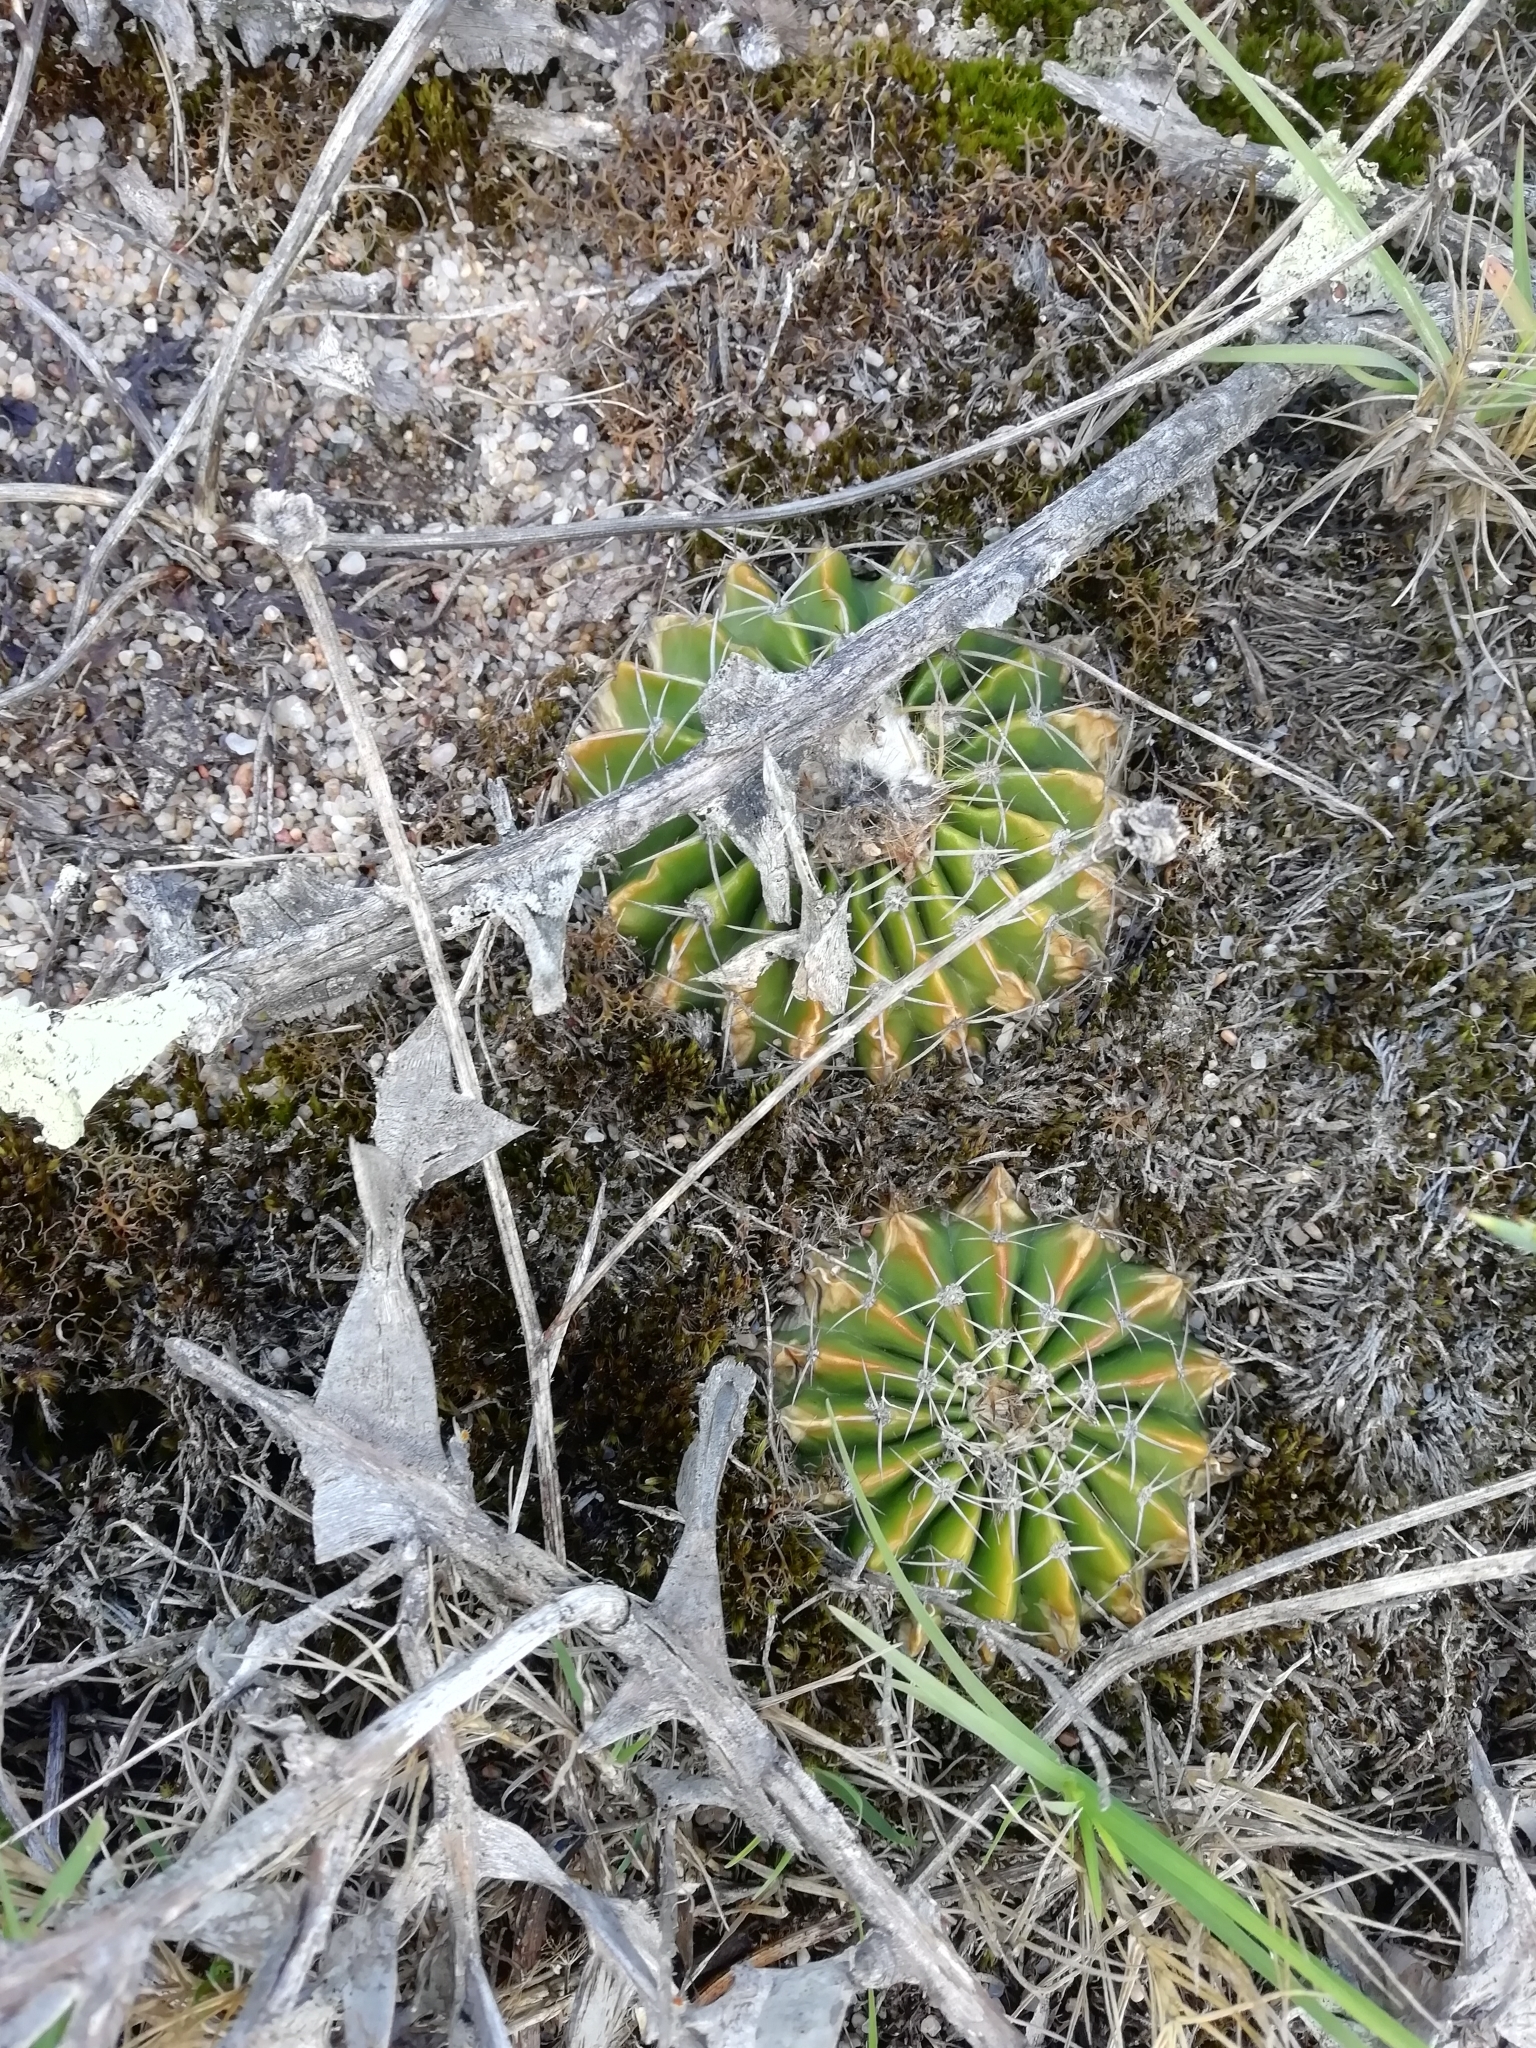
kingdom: Plantae
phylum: Tracheophyta
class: Magnoliopsida
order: Caryophyllales
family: Cactaceae
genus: Parodia
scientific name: Parodia erinacea
